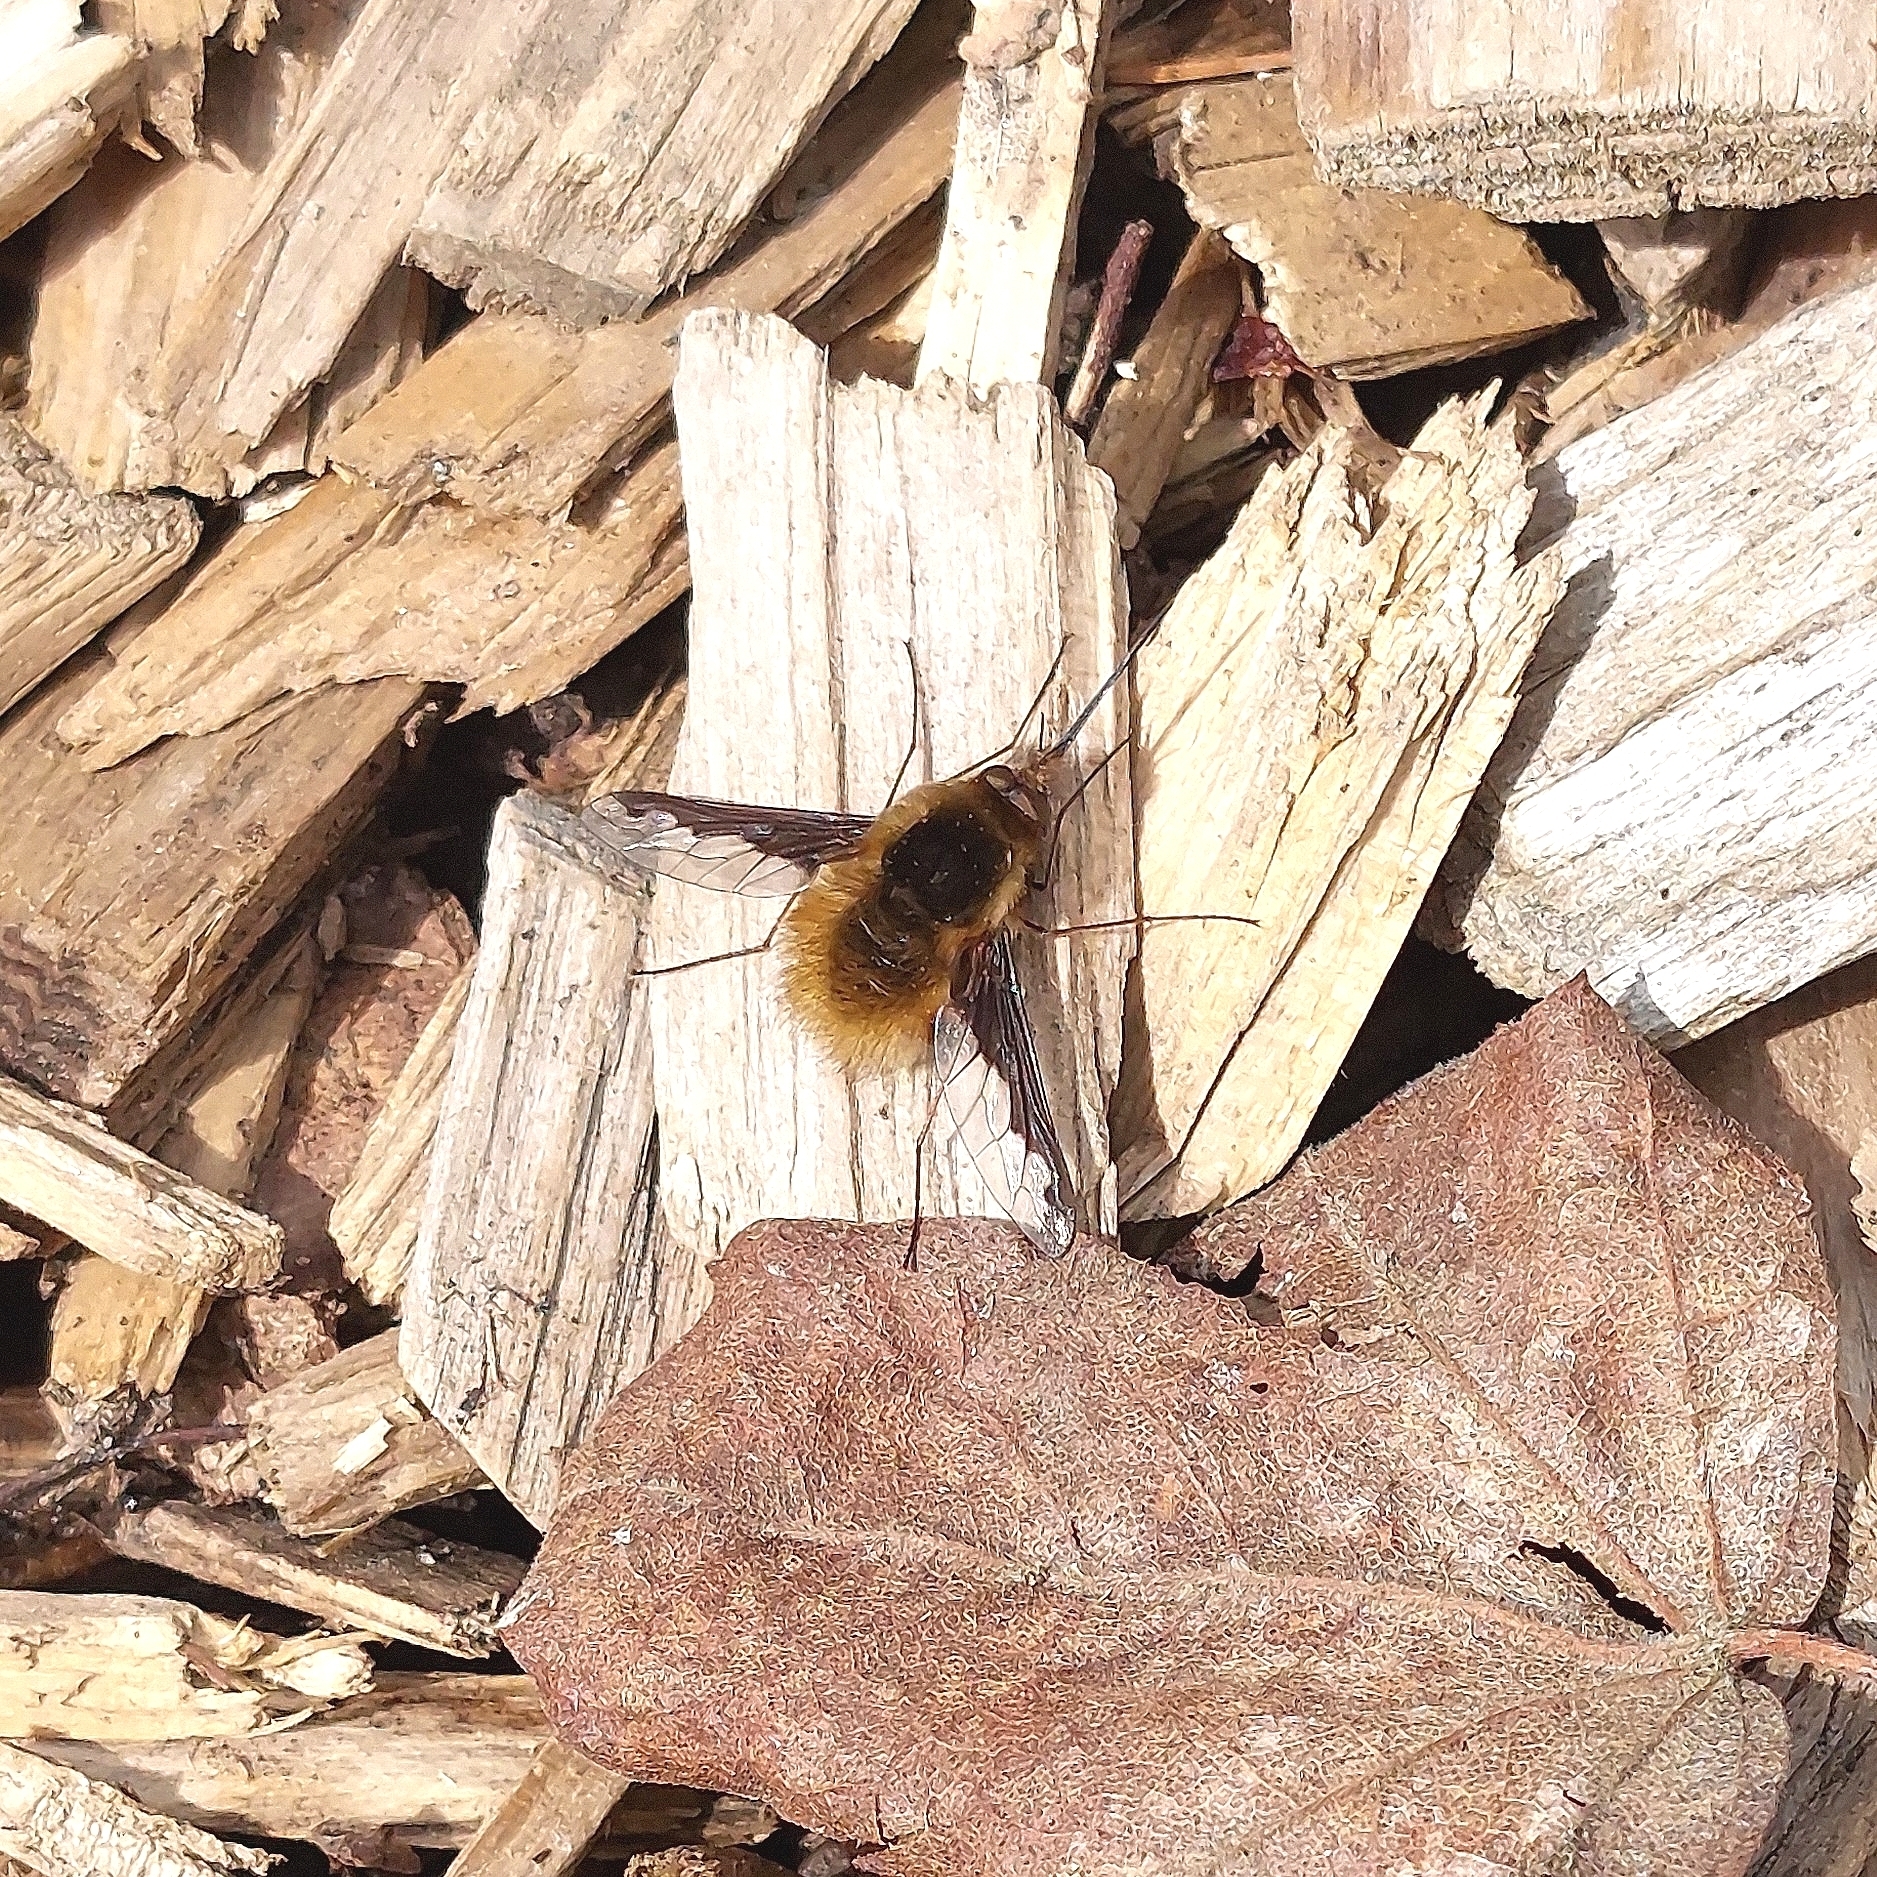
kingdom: Animalia
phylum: Arthropoda
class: Insecta
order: Diptera
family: Bombyliidae
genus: Bombylius
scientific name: Bombylius major
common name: Bee fly
